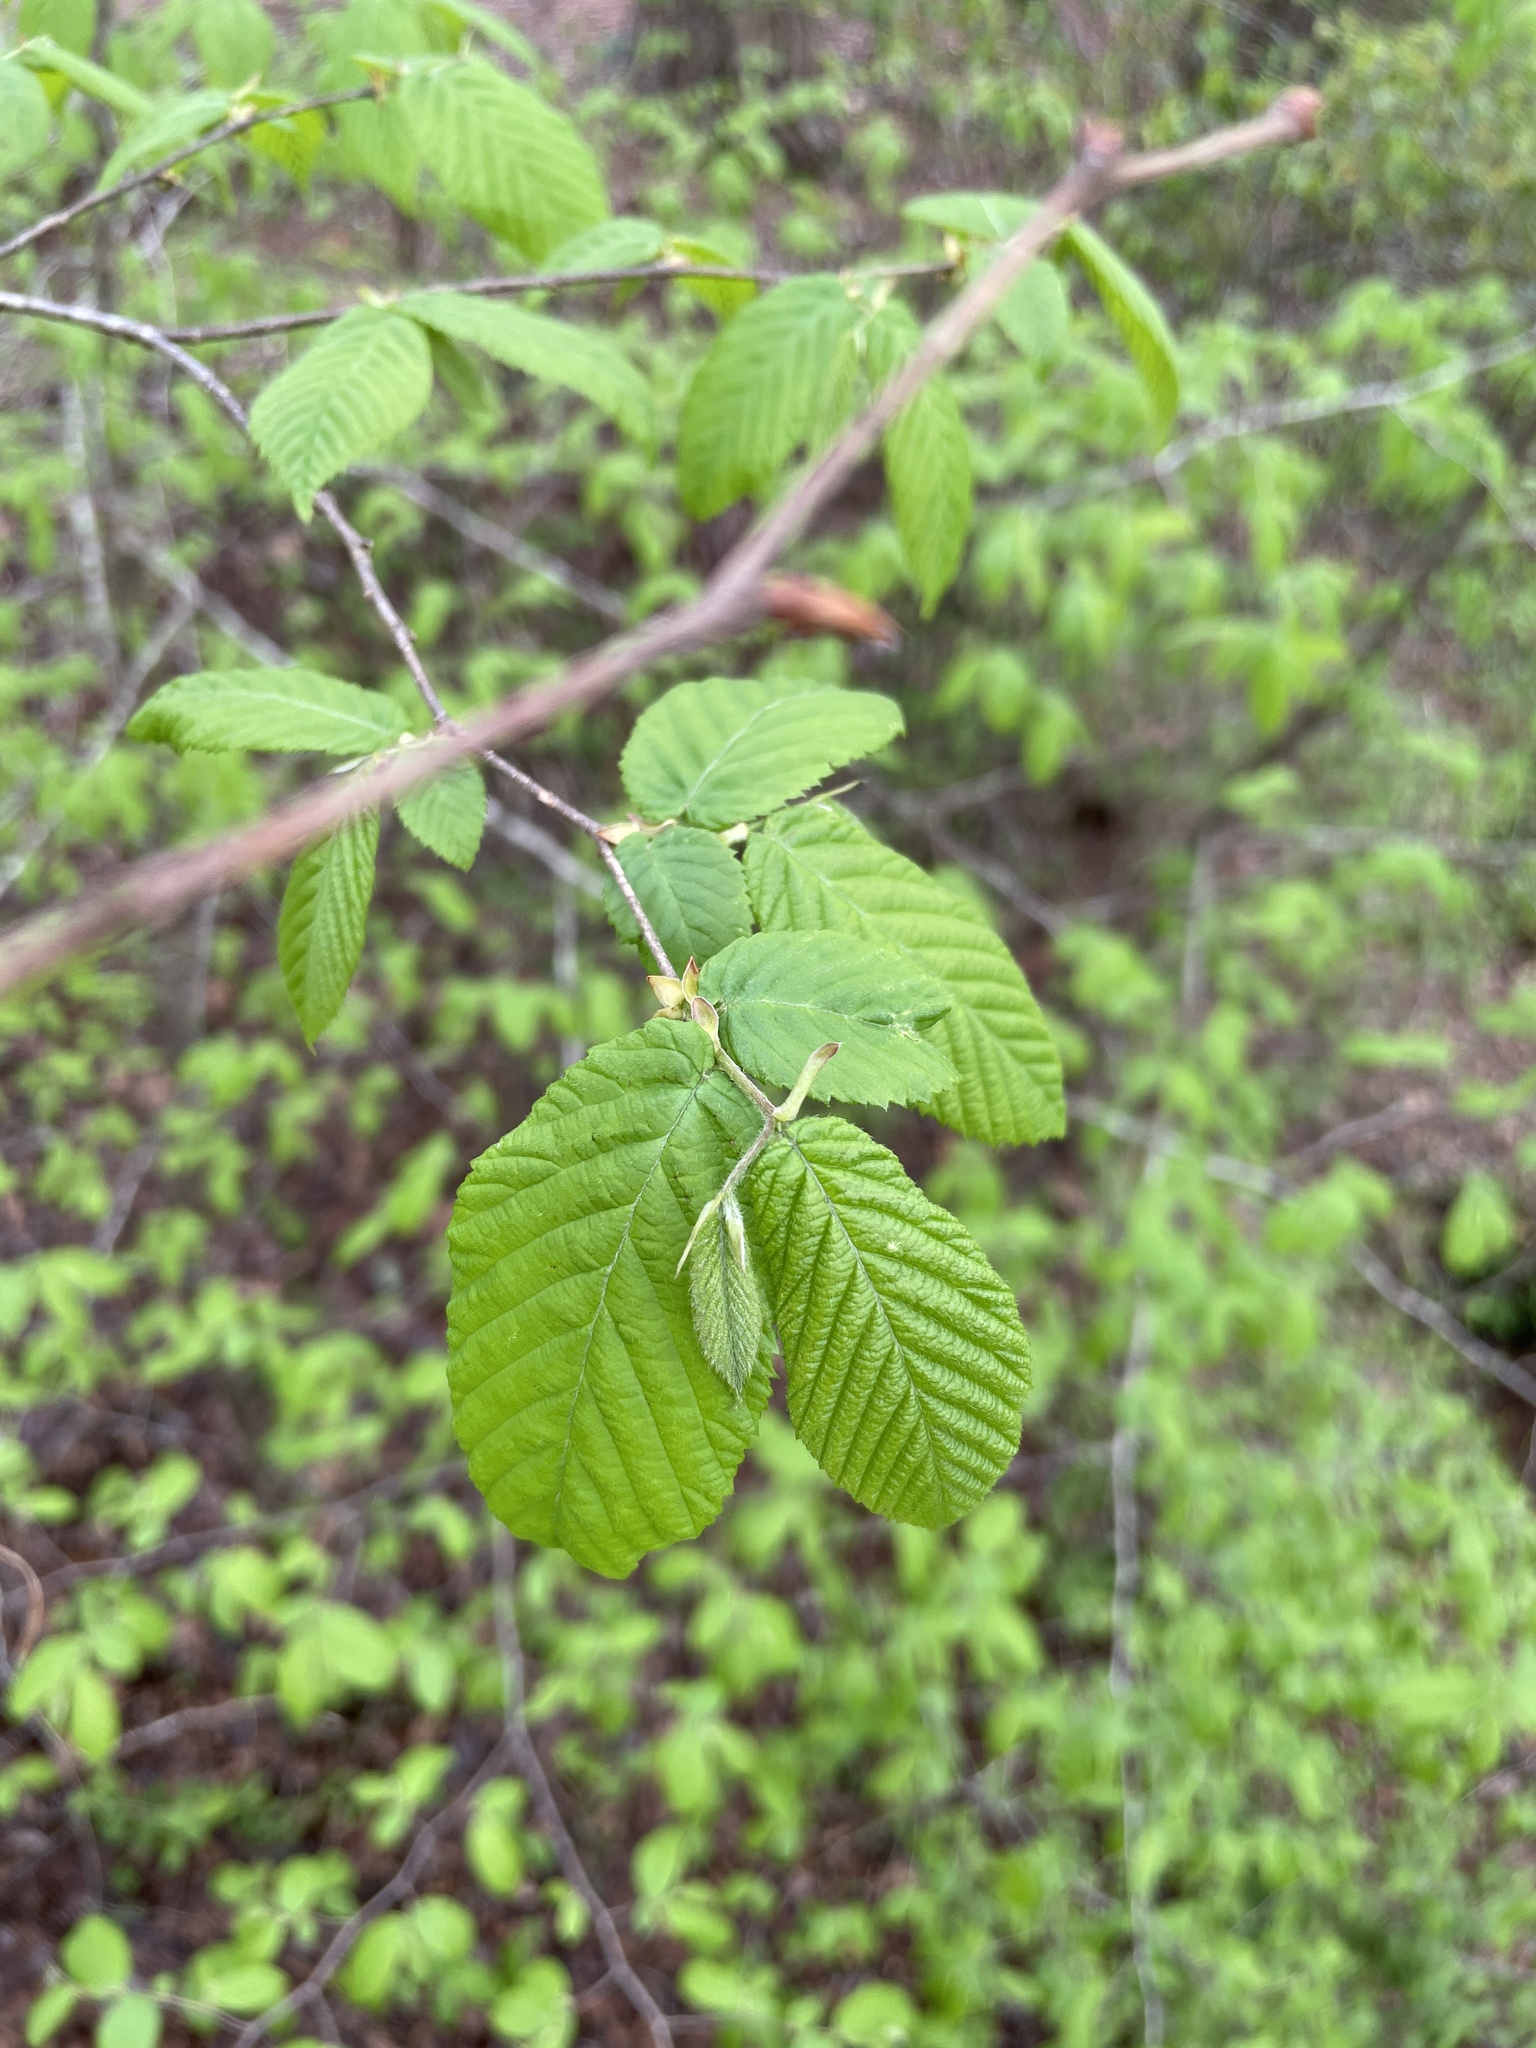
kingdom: Plantae
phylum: Tracheophyta
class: Magnoliopsida
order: Fagales
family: Betulaceae
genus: Alnus
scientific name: Alnus serrulata
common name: Hazel alder
